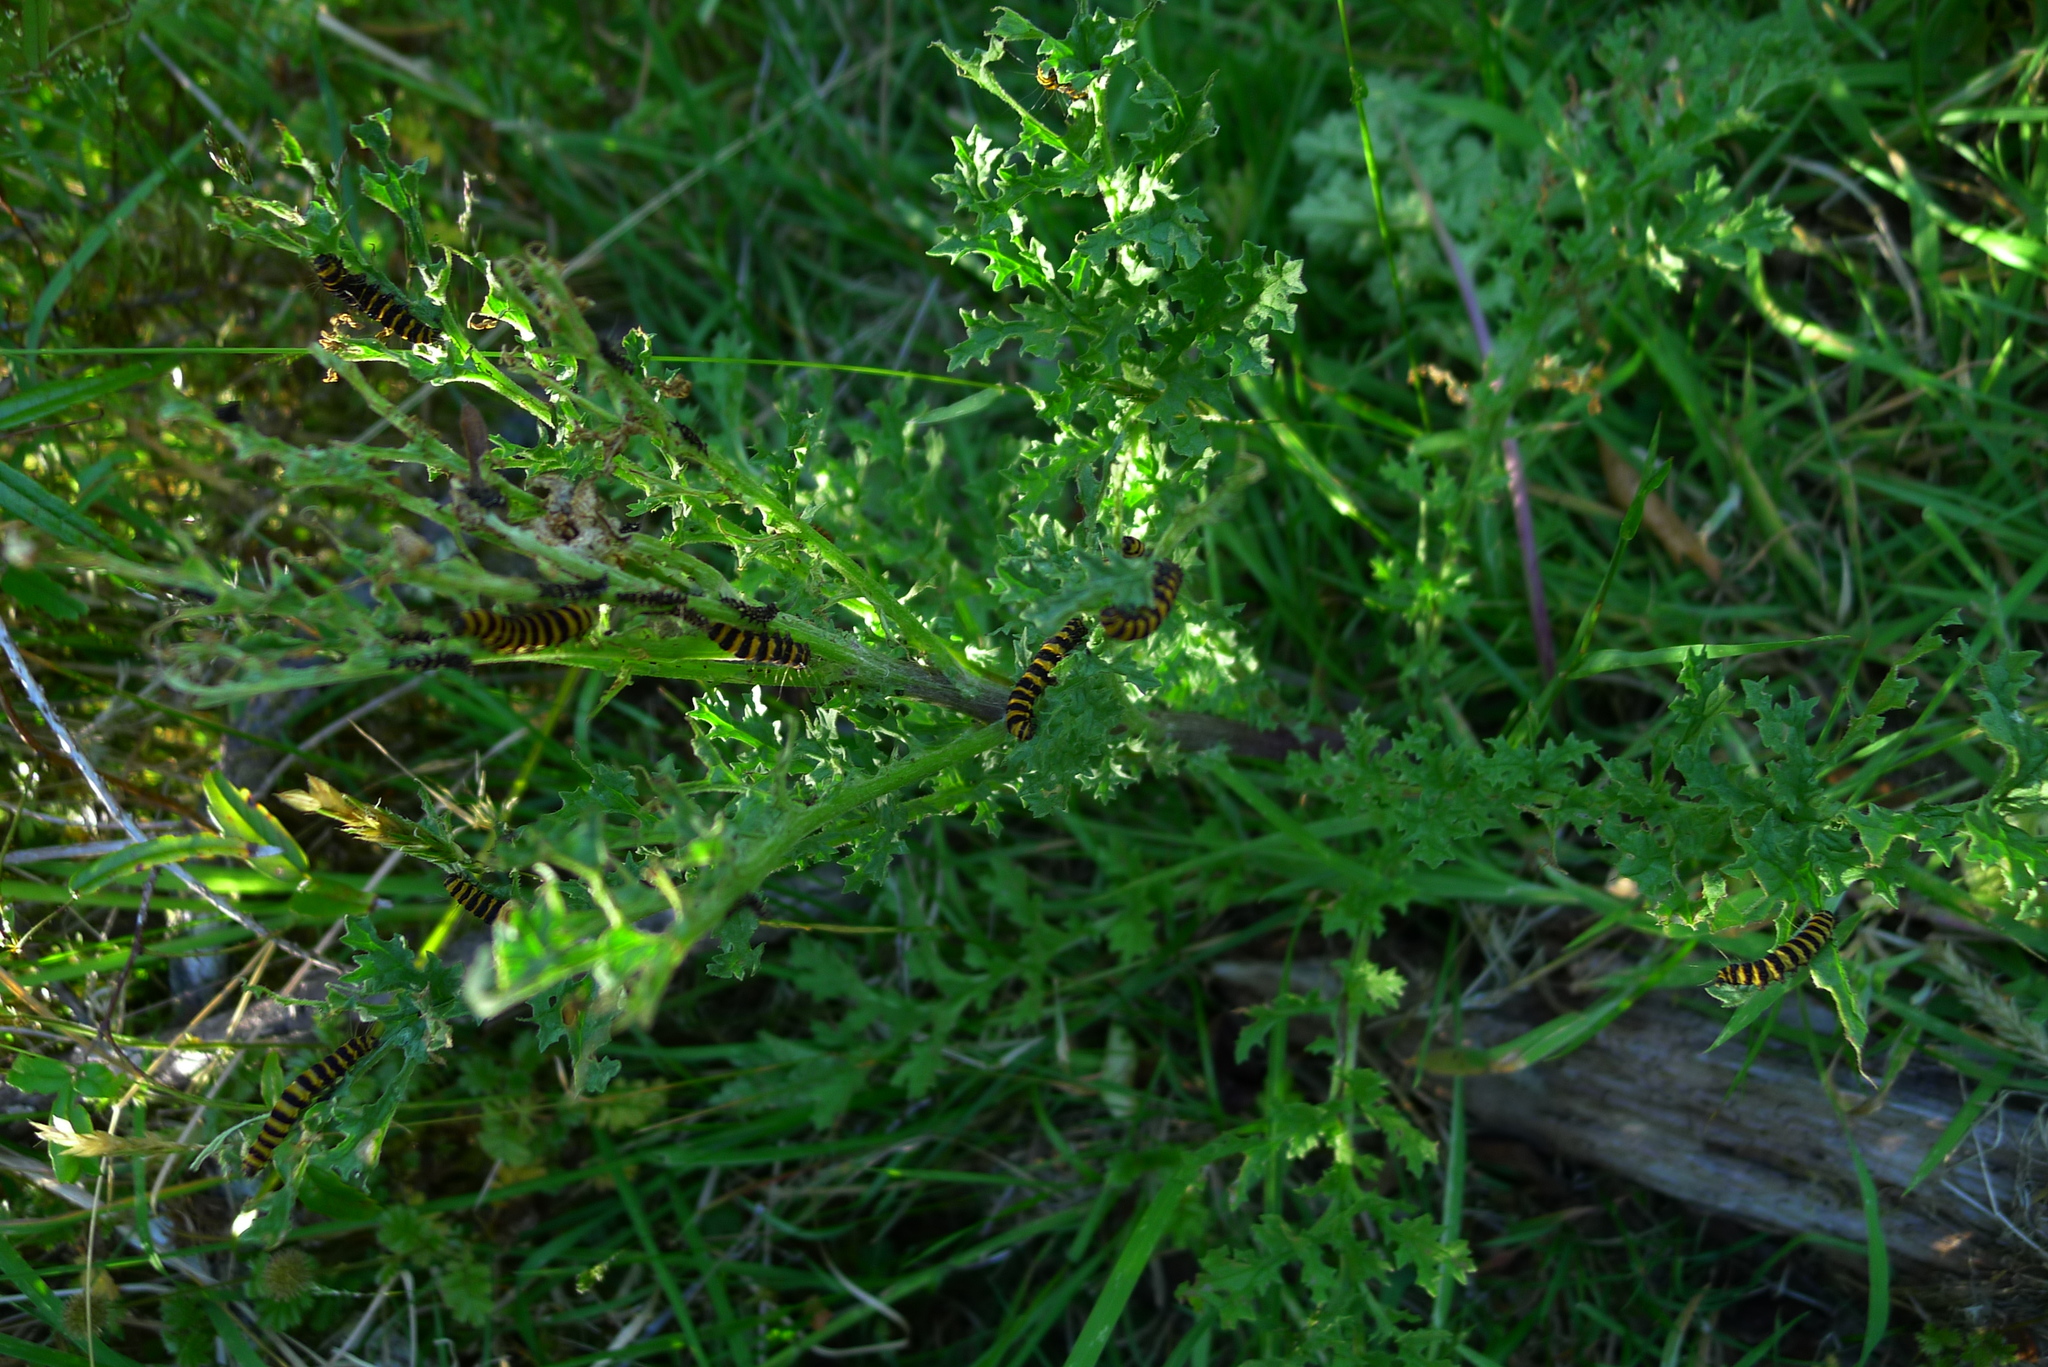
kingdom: Animalia
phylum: Arthropoda
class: Insecta
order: Lepidoptera
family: Erebidae
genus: Tyria
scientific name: Tyria jacobaeae
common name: Cinnabar
